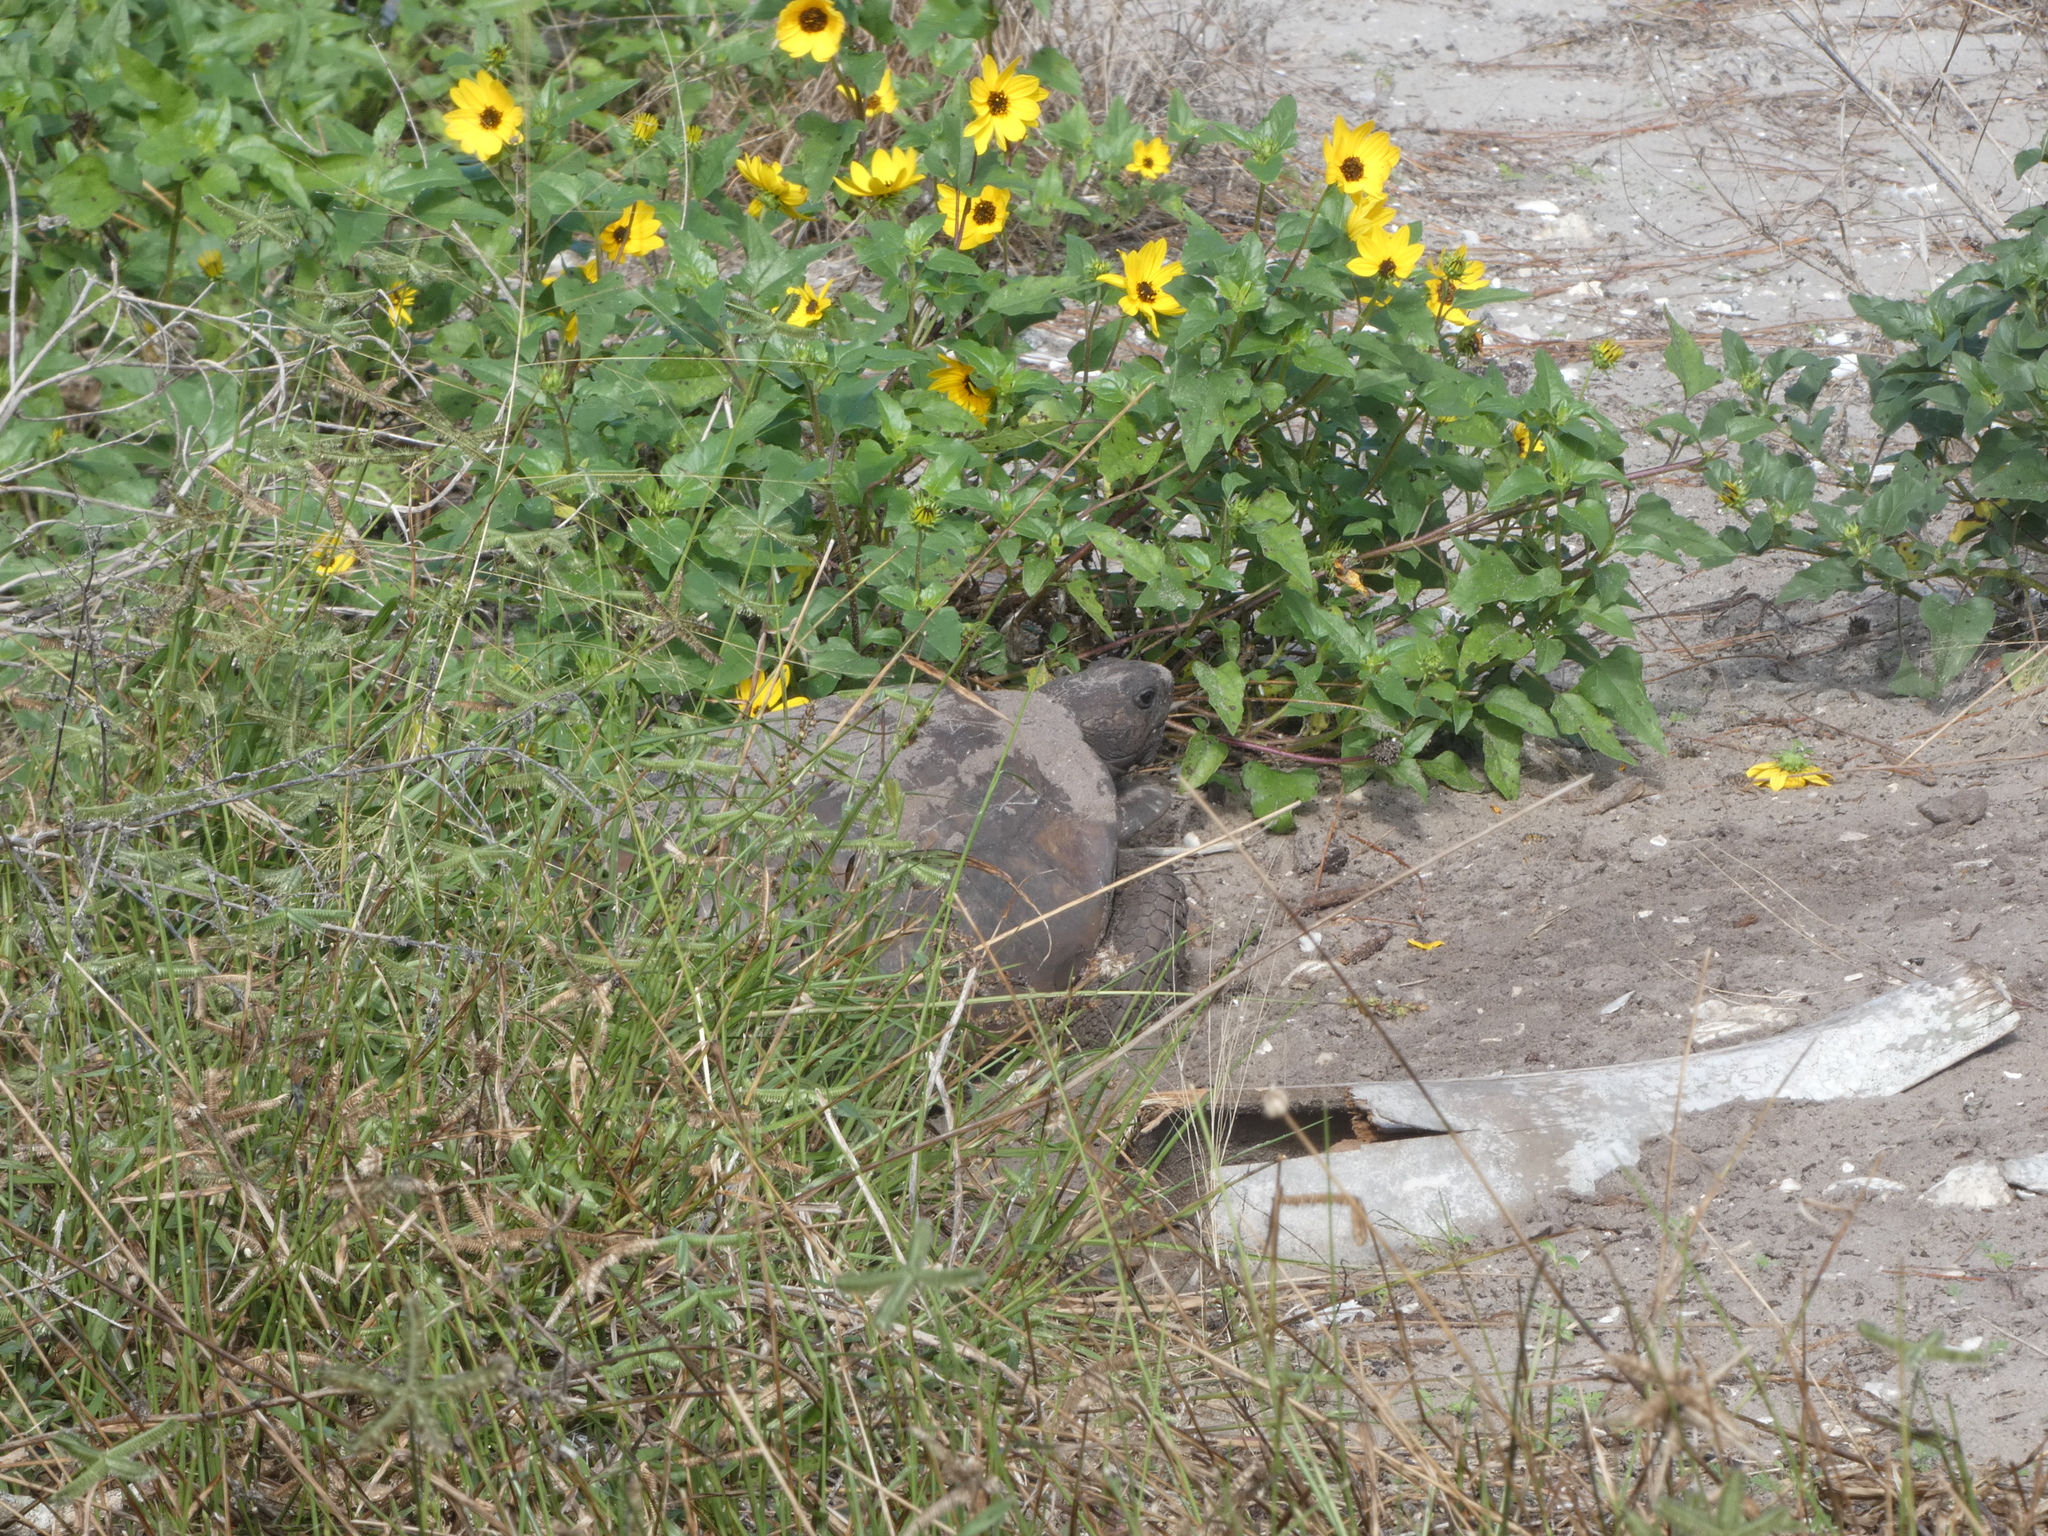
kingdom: Animalia
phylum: Chordata
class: Testudines
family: Testudinidae
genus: Gopherus
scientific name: Gopherus polyphemus
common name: Florida gopher tortoise
